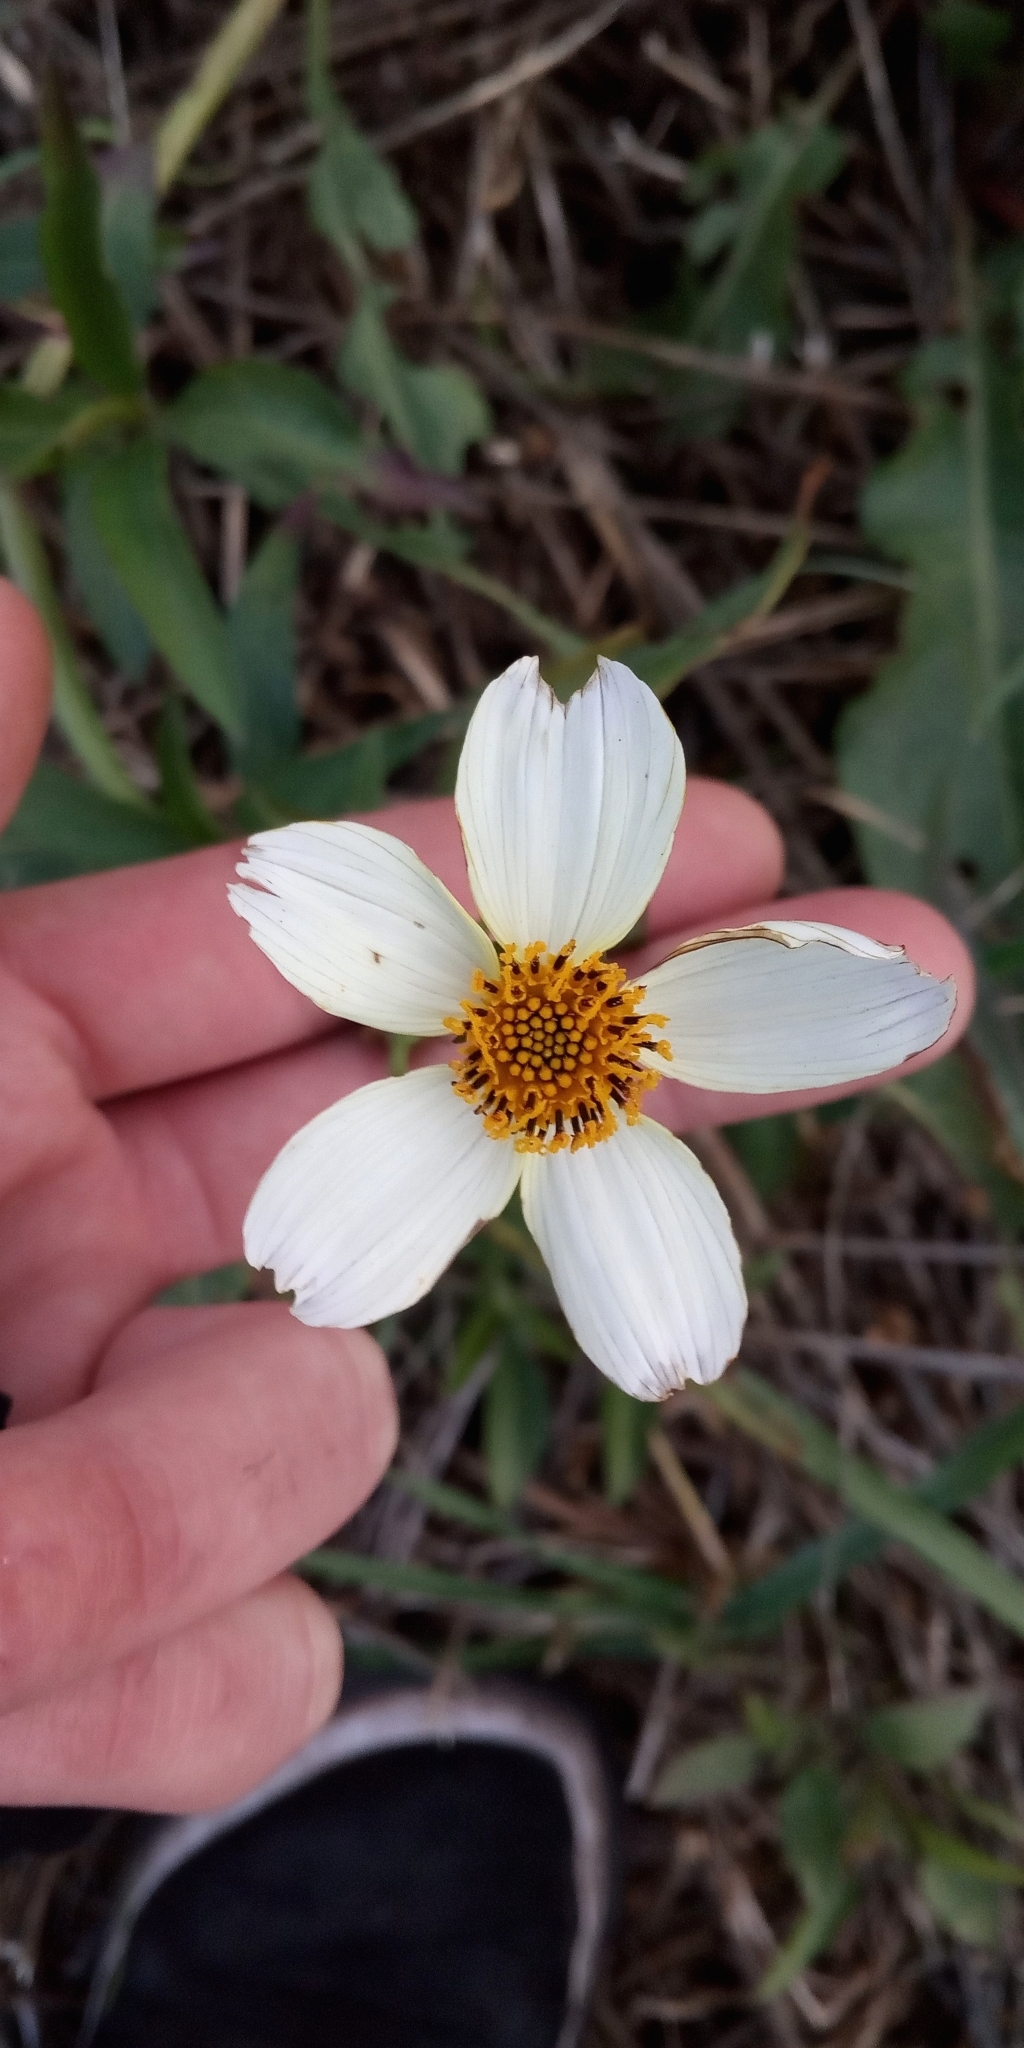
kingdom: Plantae
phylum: Tracheophyta
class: Magnoliopsida
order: Asterales
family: Asteraceae
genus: Bidens
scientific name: Bidens aurea
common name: Arizona beggar-ticks
